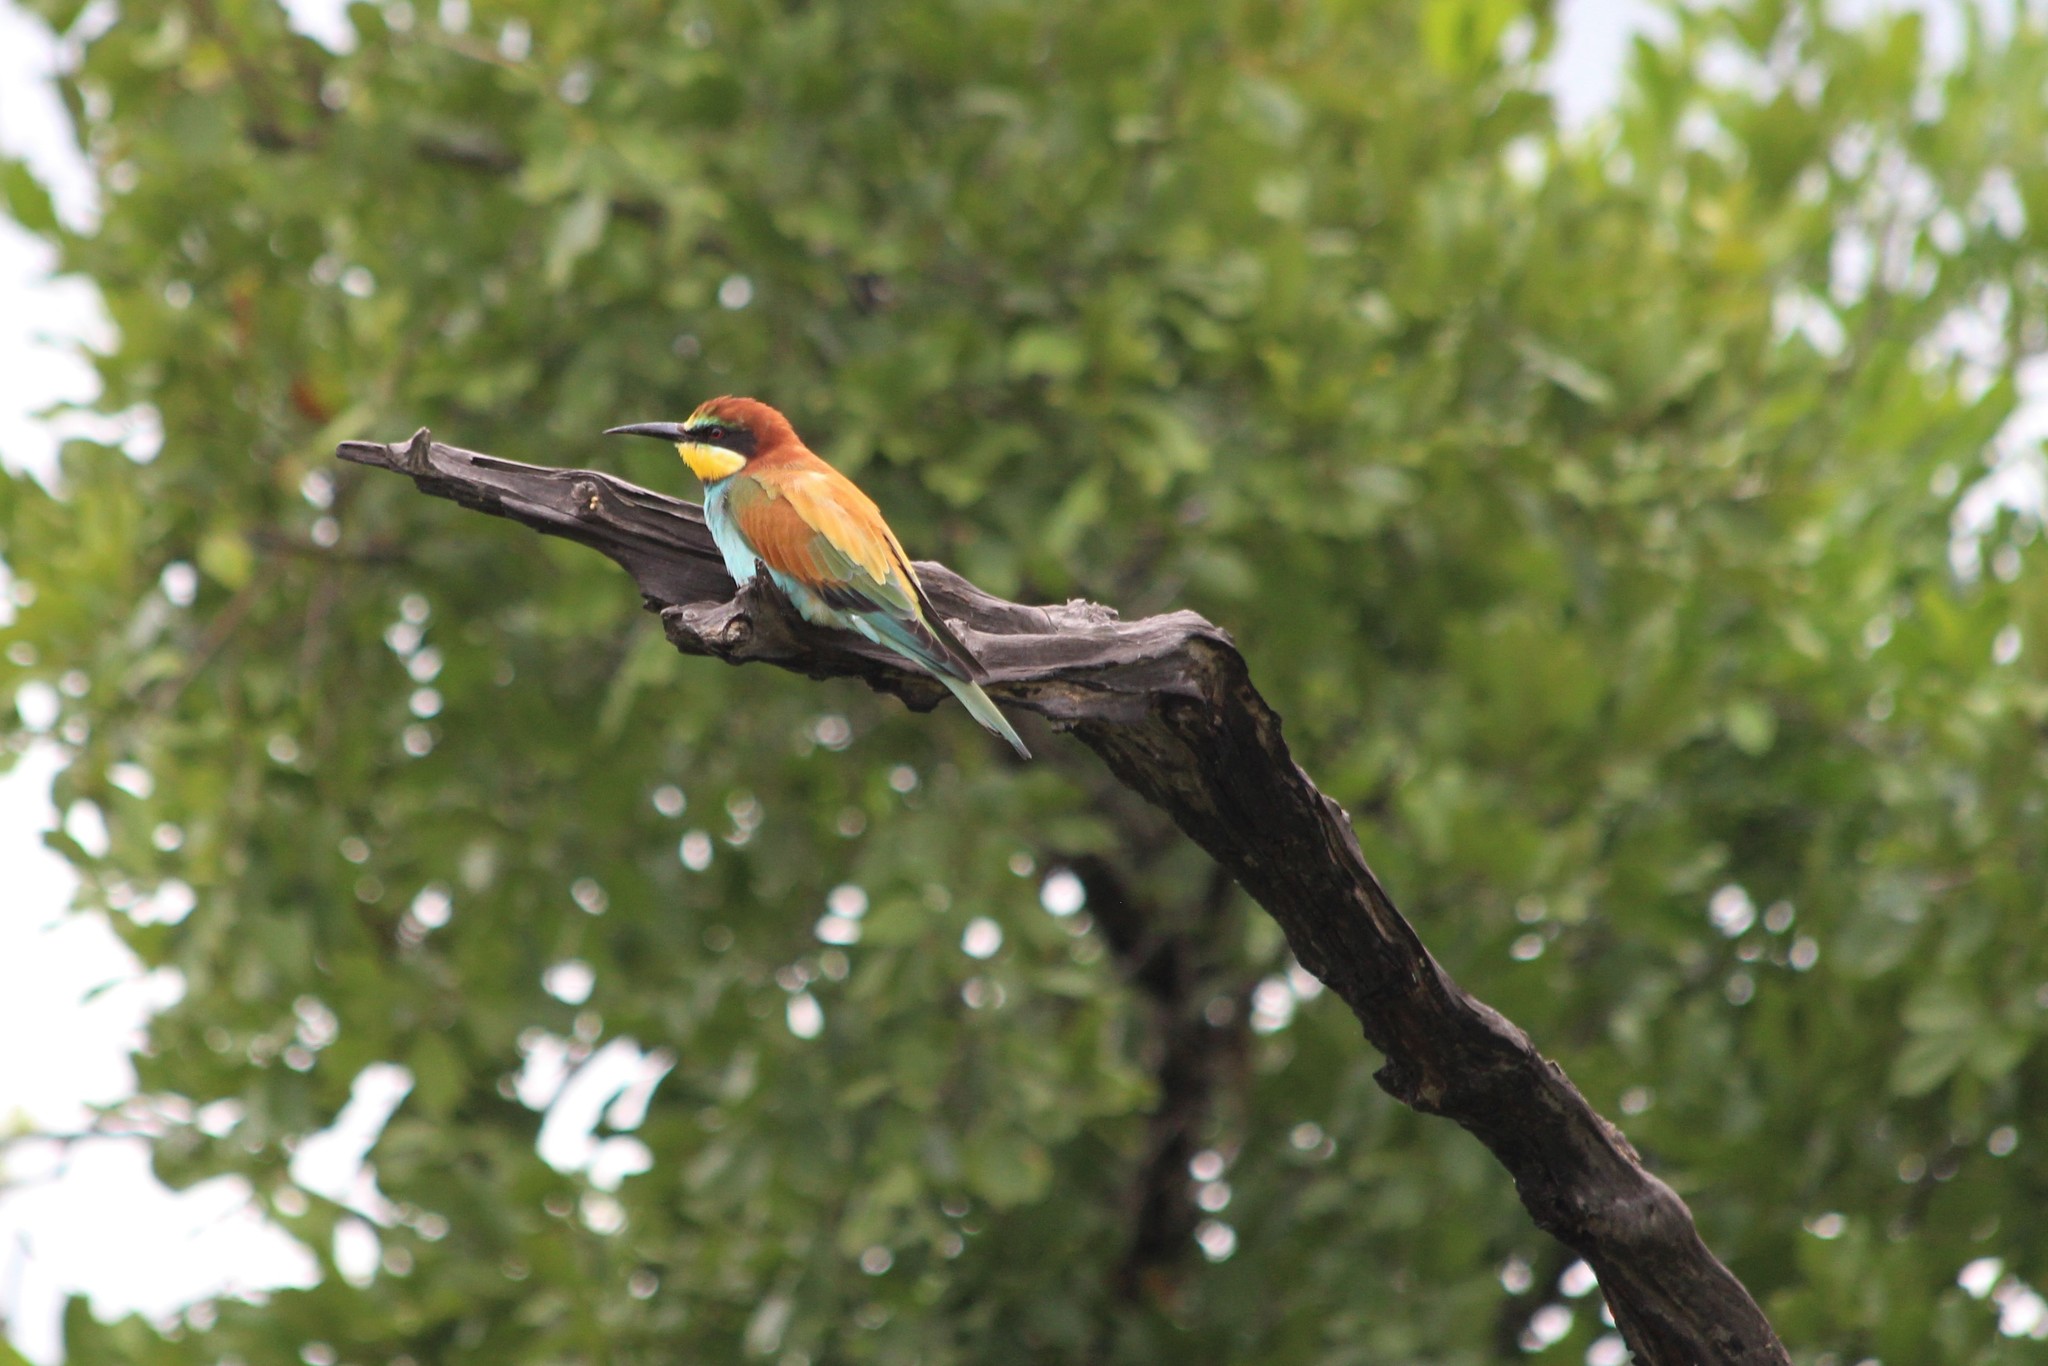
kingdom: Animalia
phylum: Chordata
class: Aves
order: Coraciiformes
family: Meropidae
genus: Merops
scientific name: Merops apiaster
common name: European bee-eater
